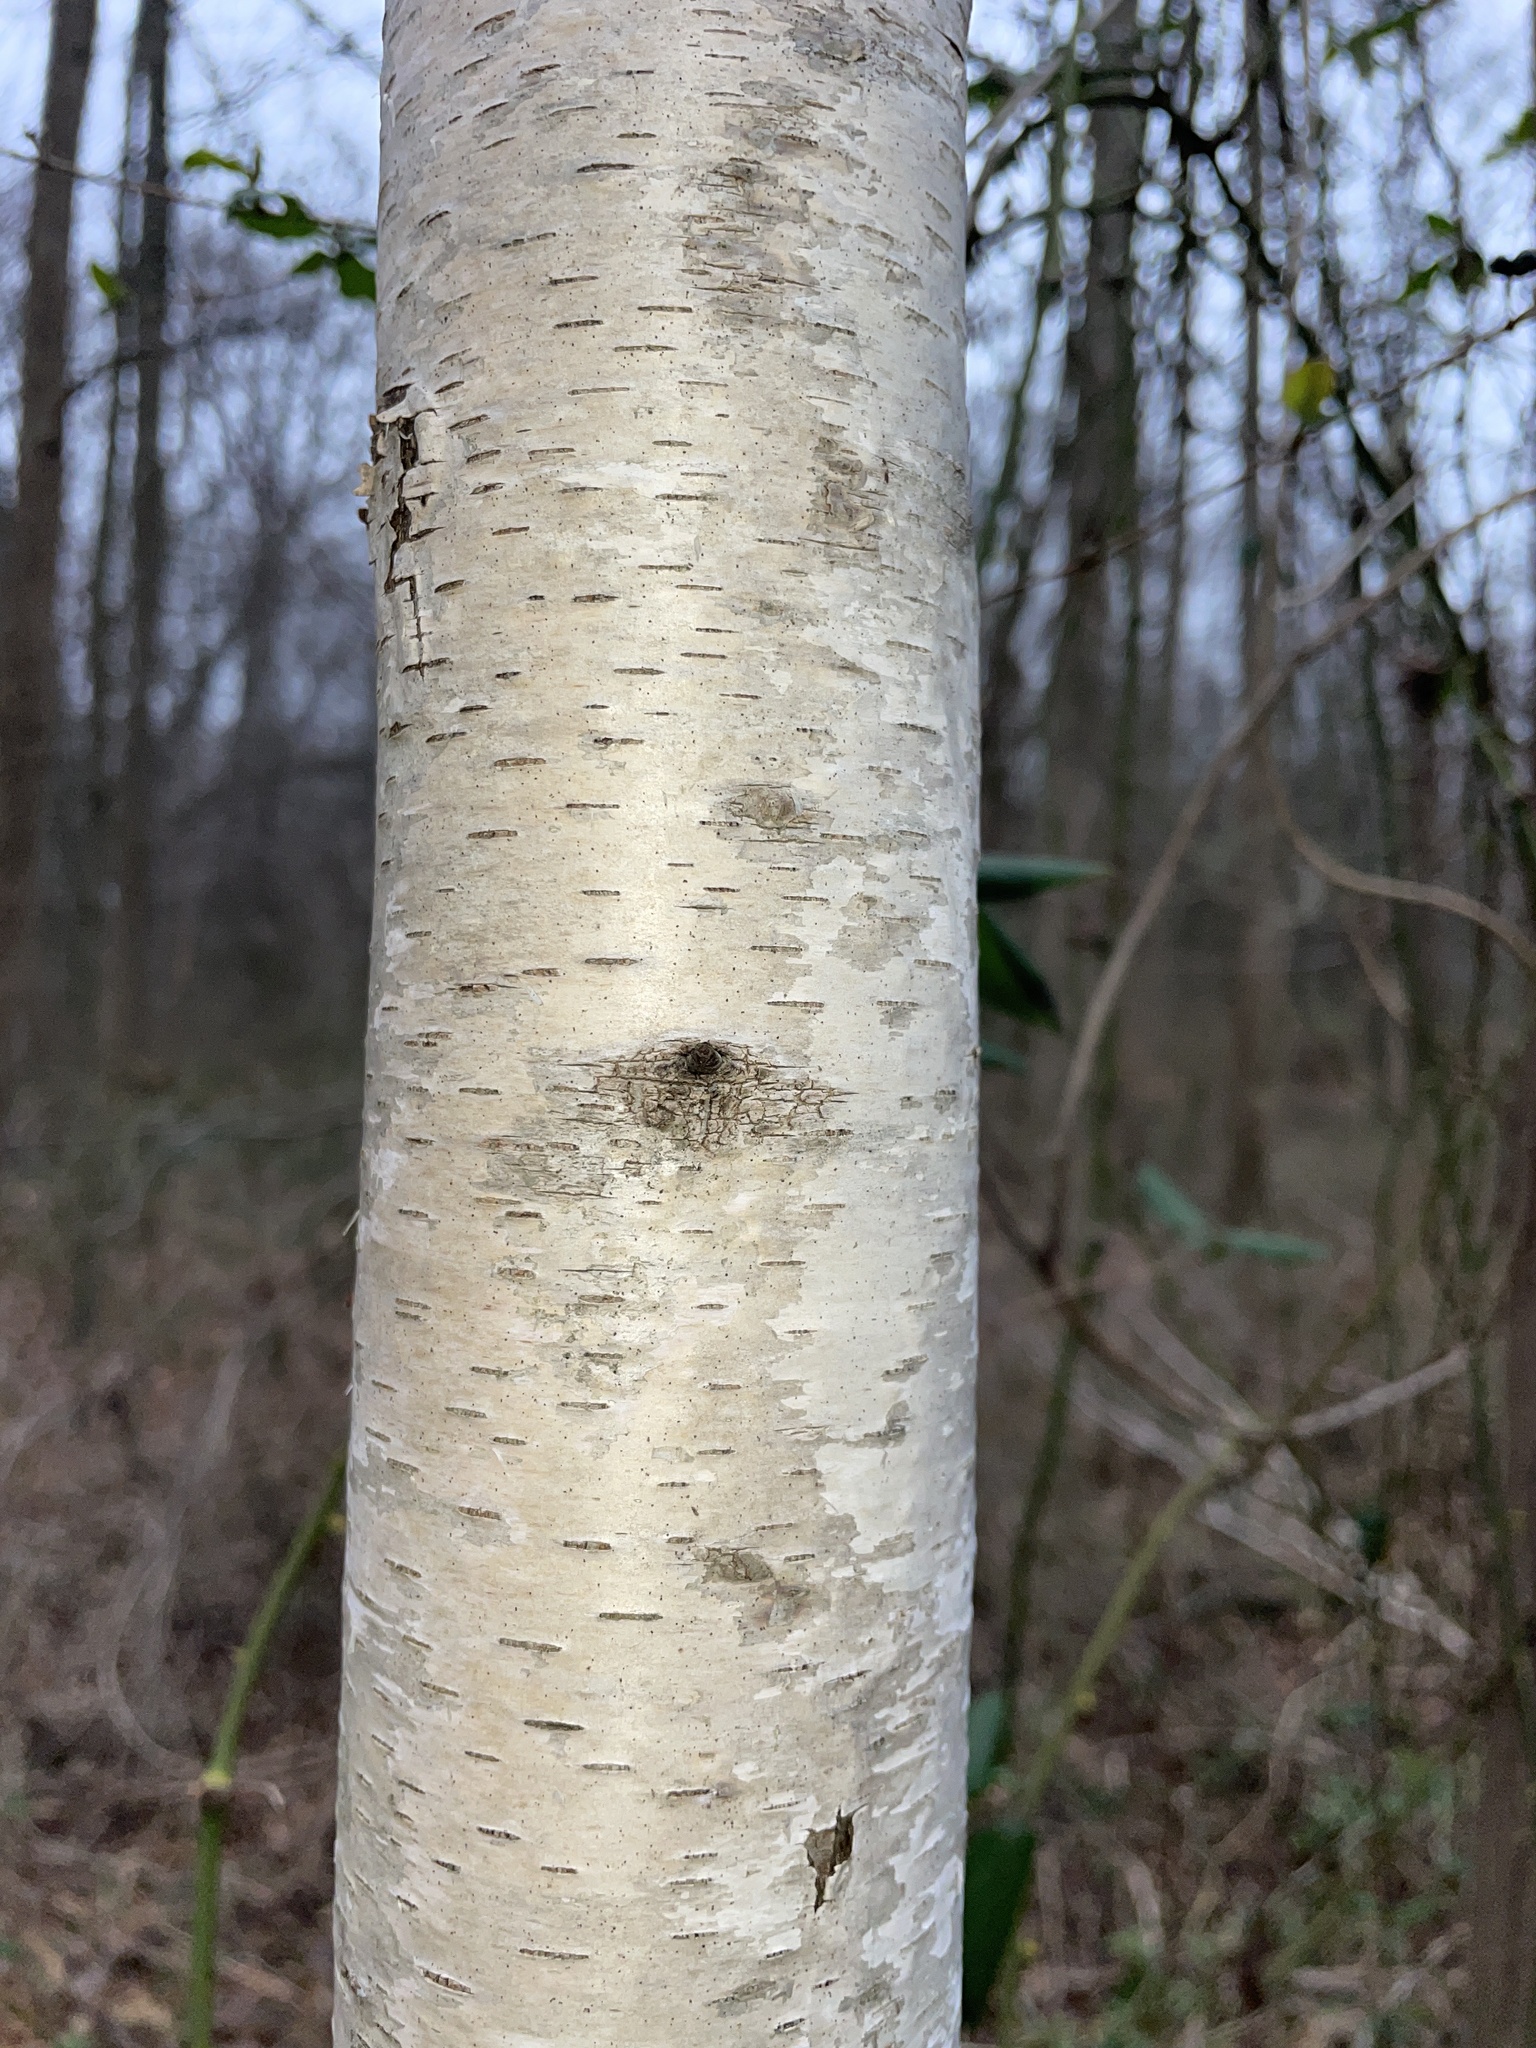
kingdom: Plantae
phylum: Tracheophyta
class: Magnoliopsida
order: Fagales
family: Betulaceae
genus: Betula
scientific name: Betula populifolia
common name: Fire birch
